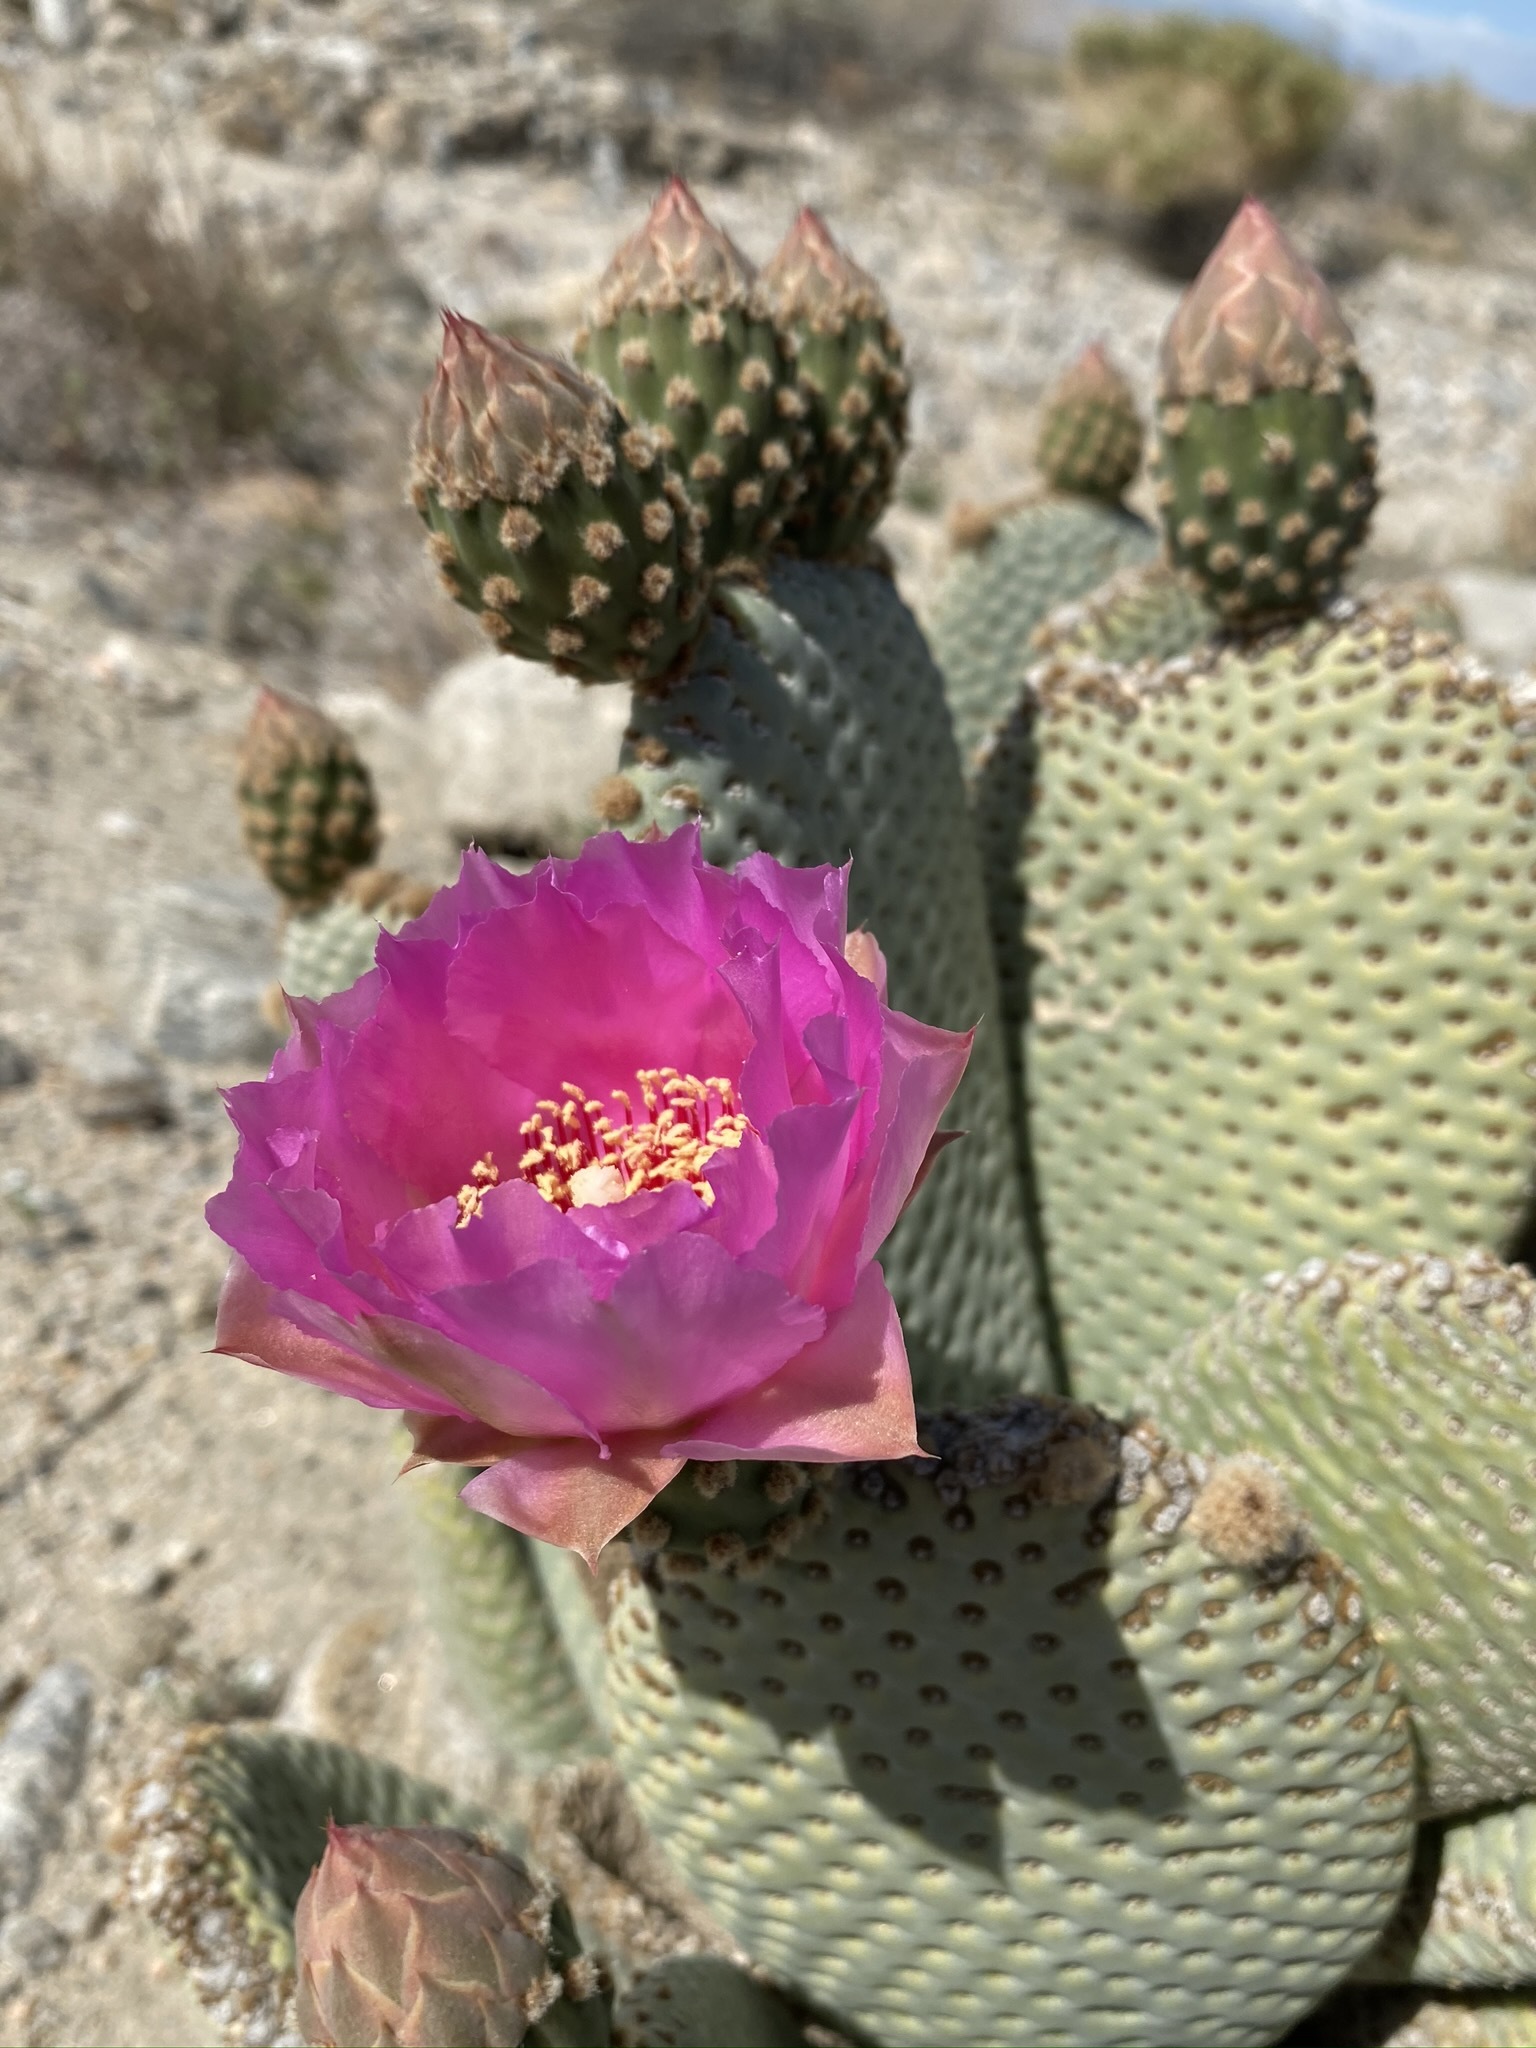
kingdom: Plantae
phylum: Tracheophyta
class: Magnoliopsida
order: Caryophyllales
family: Cactaceae
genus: Opuntia
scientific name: Opuntia basilaris
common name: Beavertail prickly-pear
